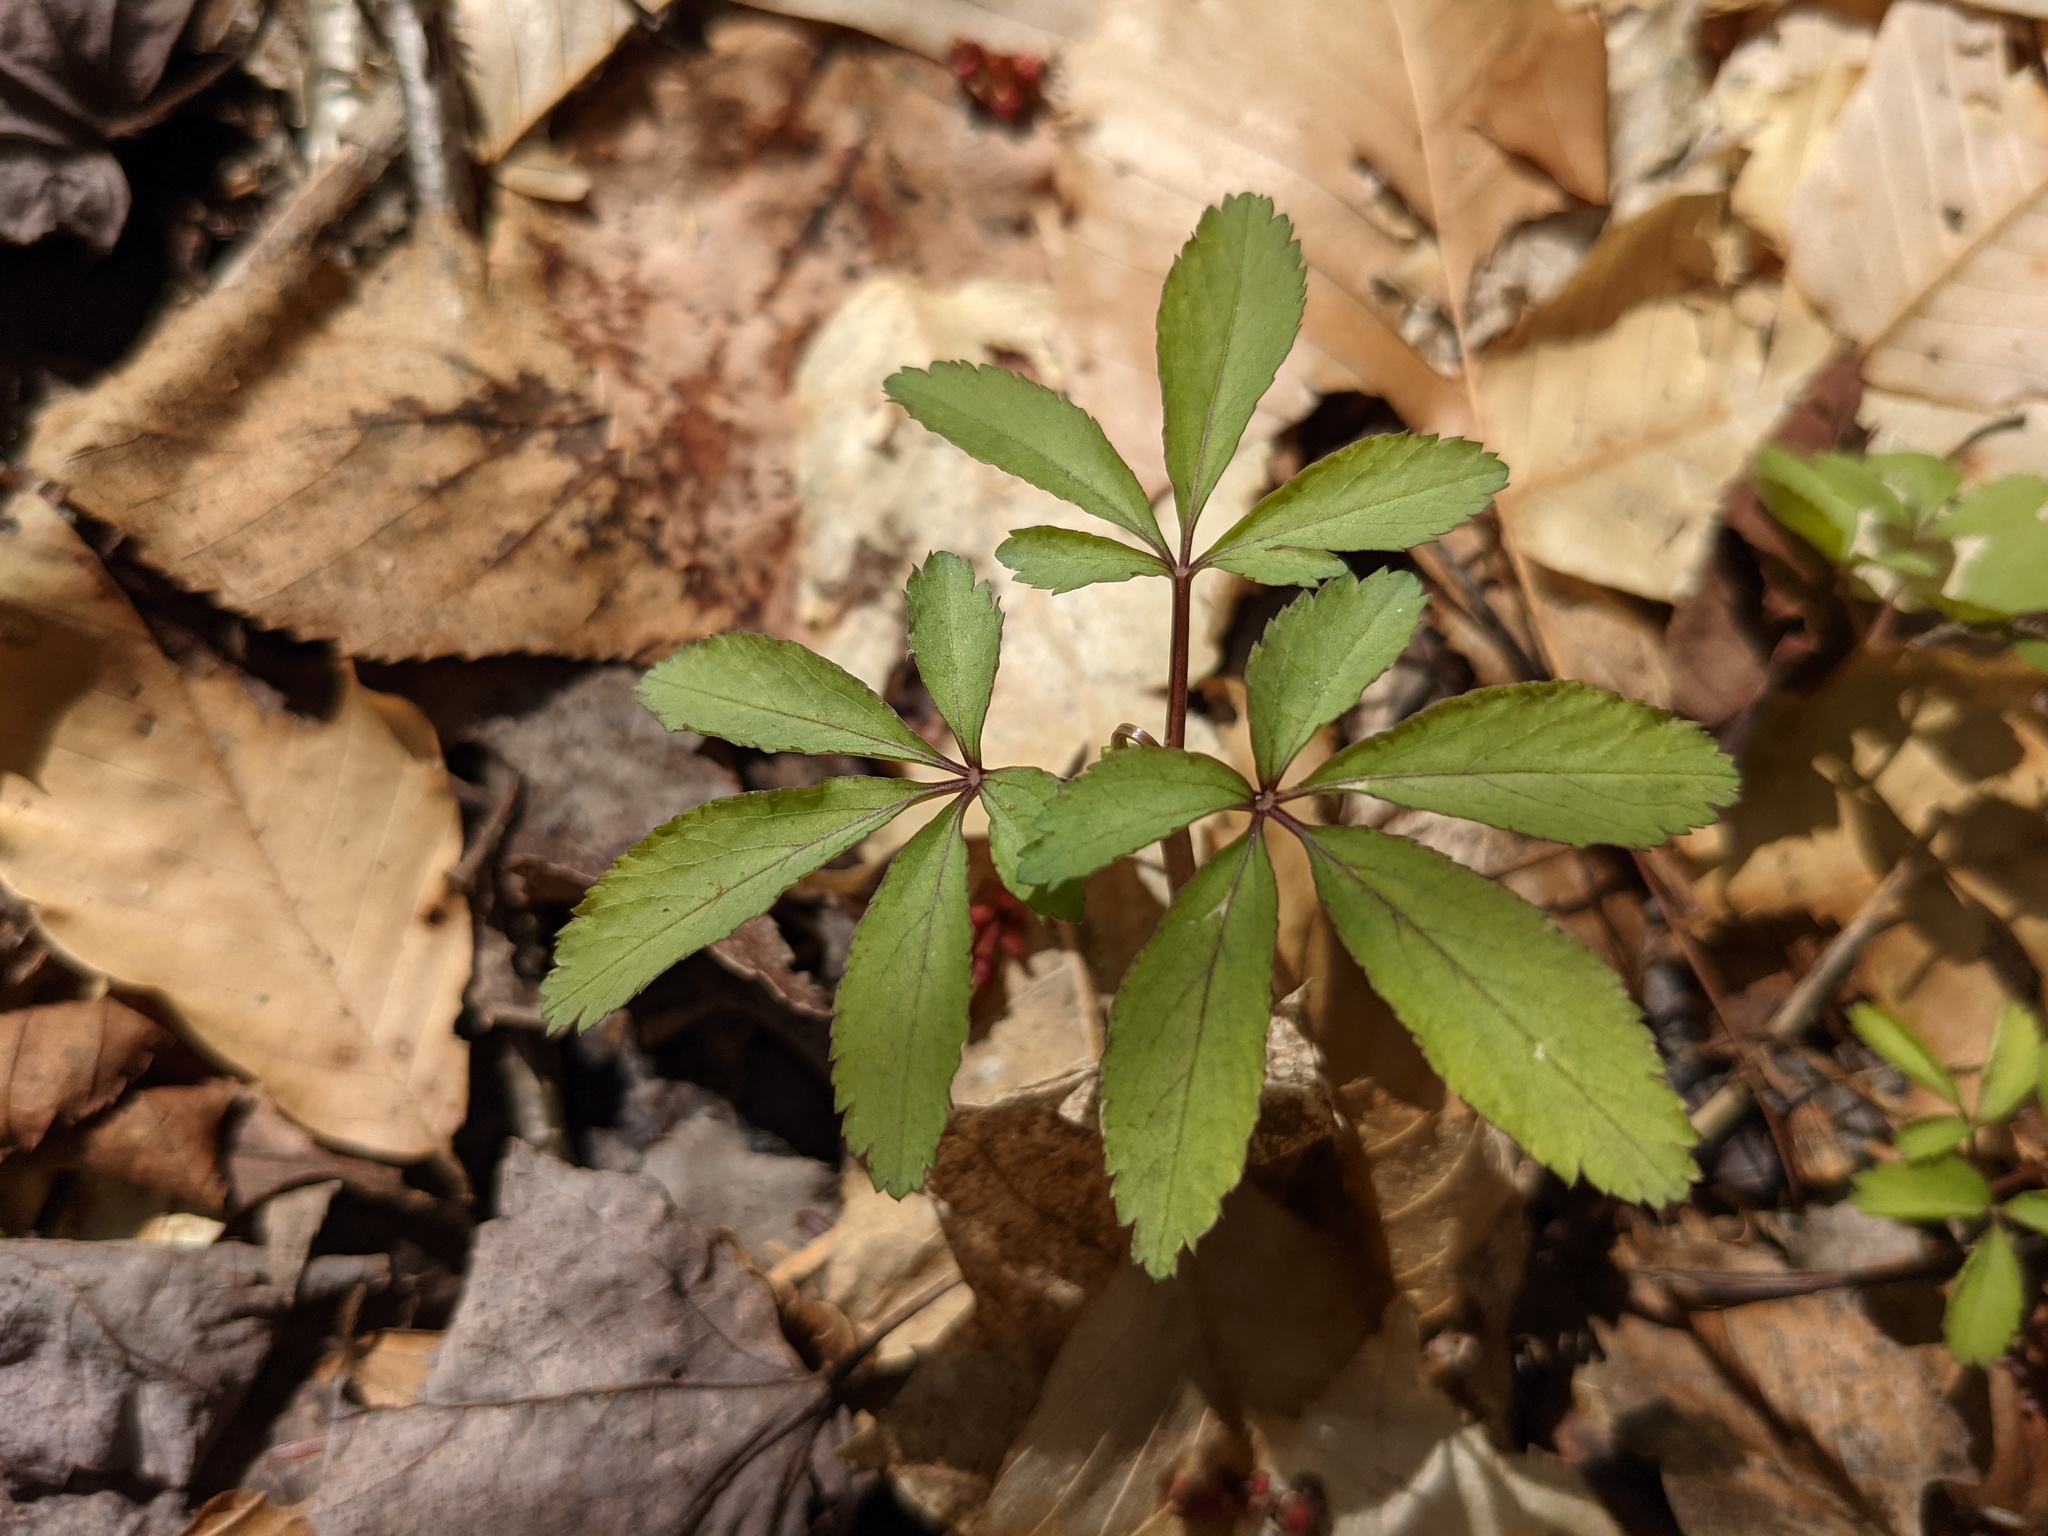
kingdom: Plantae
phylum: Tracheophyta
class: Magnoliopsida
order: Apiales
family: Araliaceae
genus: Panax
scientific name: Panax trifolius
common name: Dwarf ginseng
